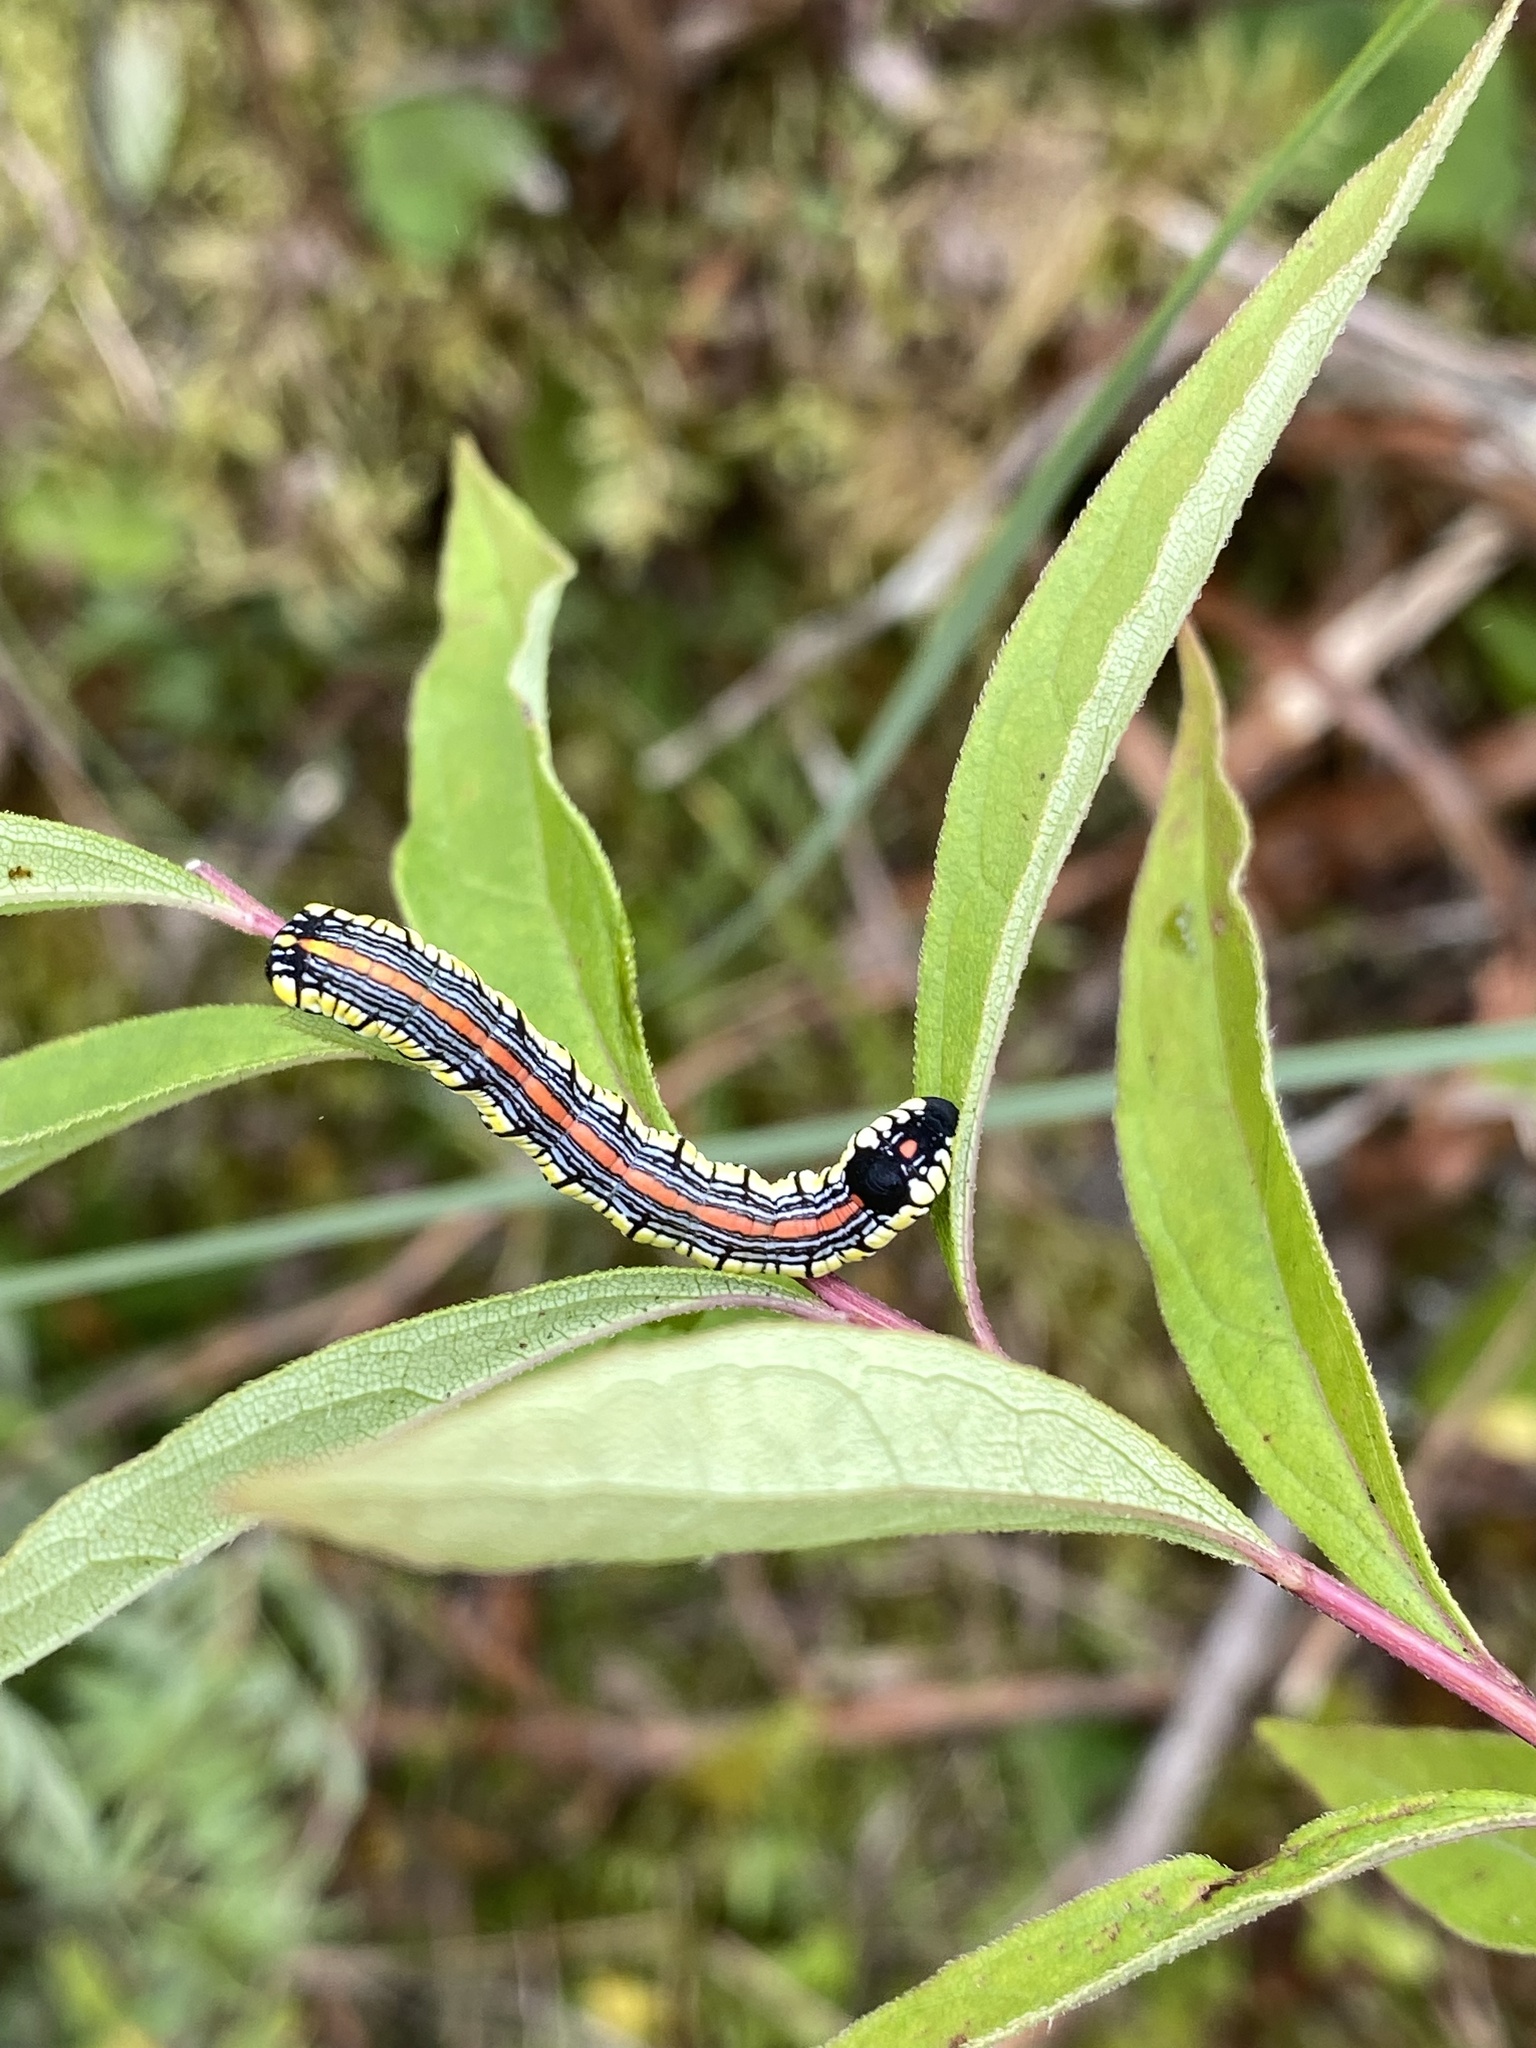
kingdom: Animalia
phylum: Arthropoda
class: Insecta
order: Lepidoptera
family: Noctuidae
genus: Cucullia
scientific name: Cucullia convexipennis
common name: Brown-hooded owlet
